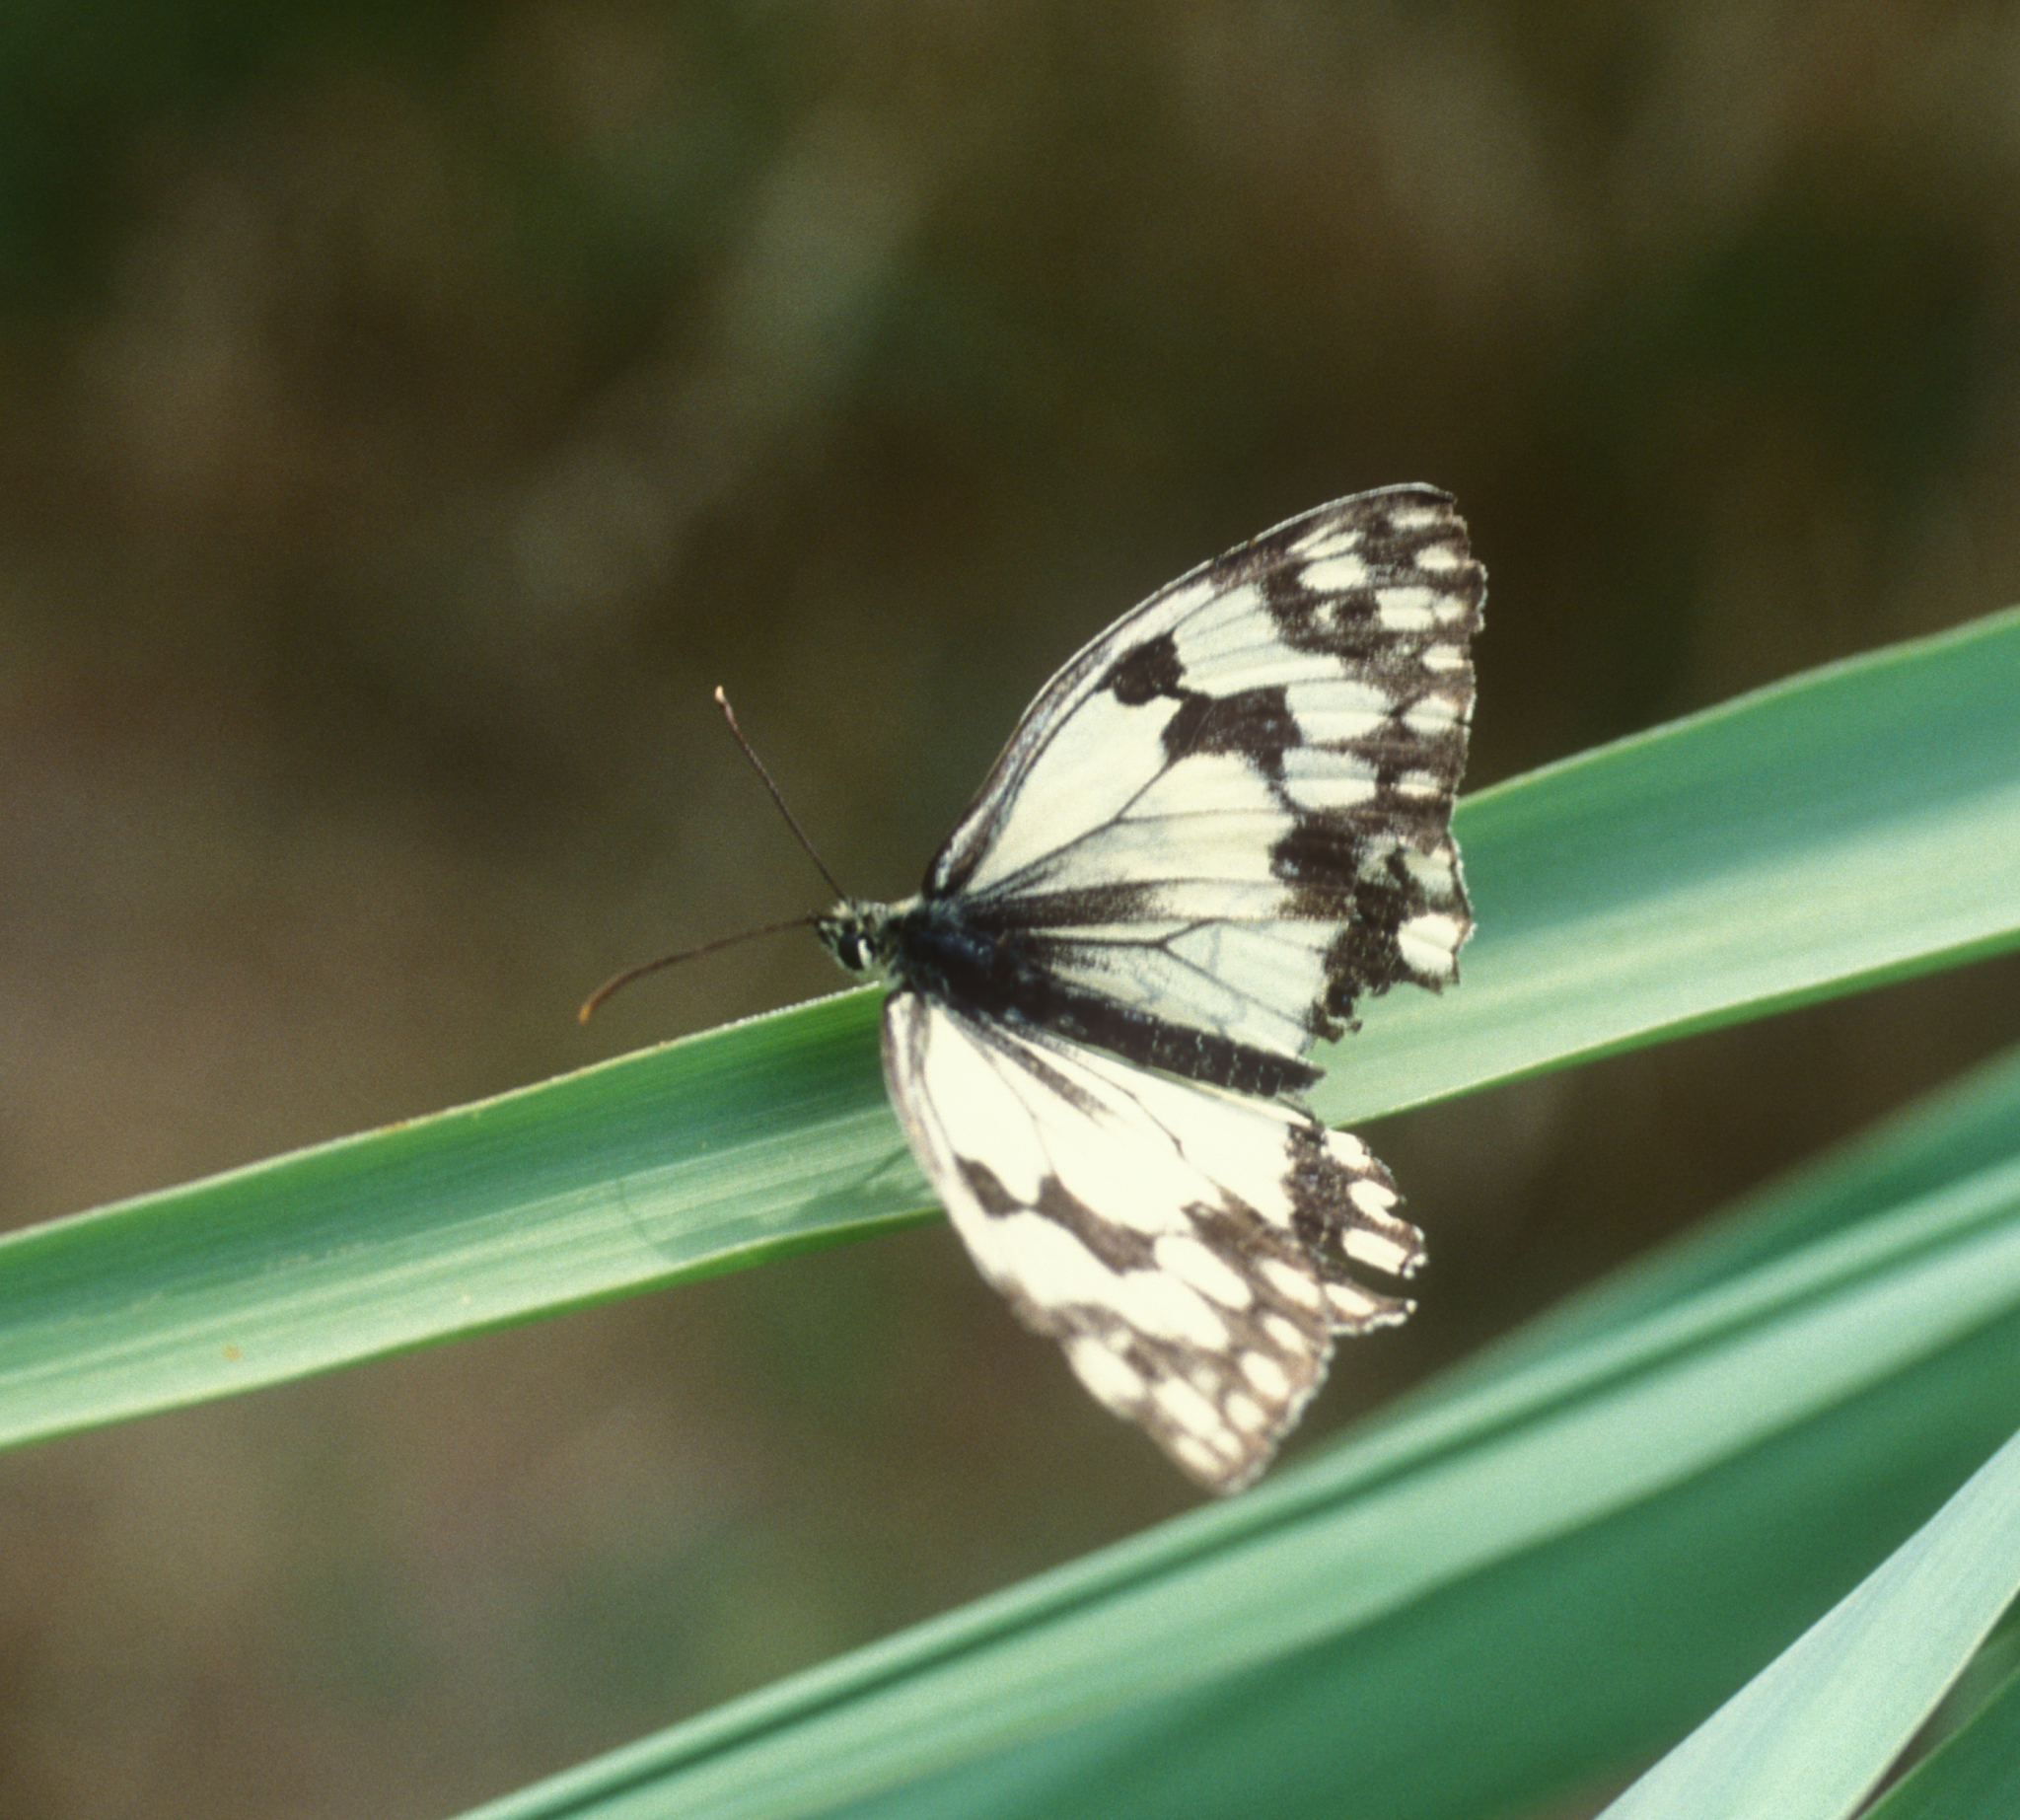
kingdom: Animalia
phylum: Arthropoda
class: Insecta
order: Lepidoptera
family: Nymphalidae
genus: Melanargia
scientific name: Melanargia lachesis
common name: Iberian marbled white
